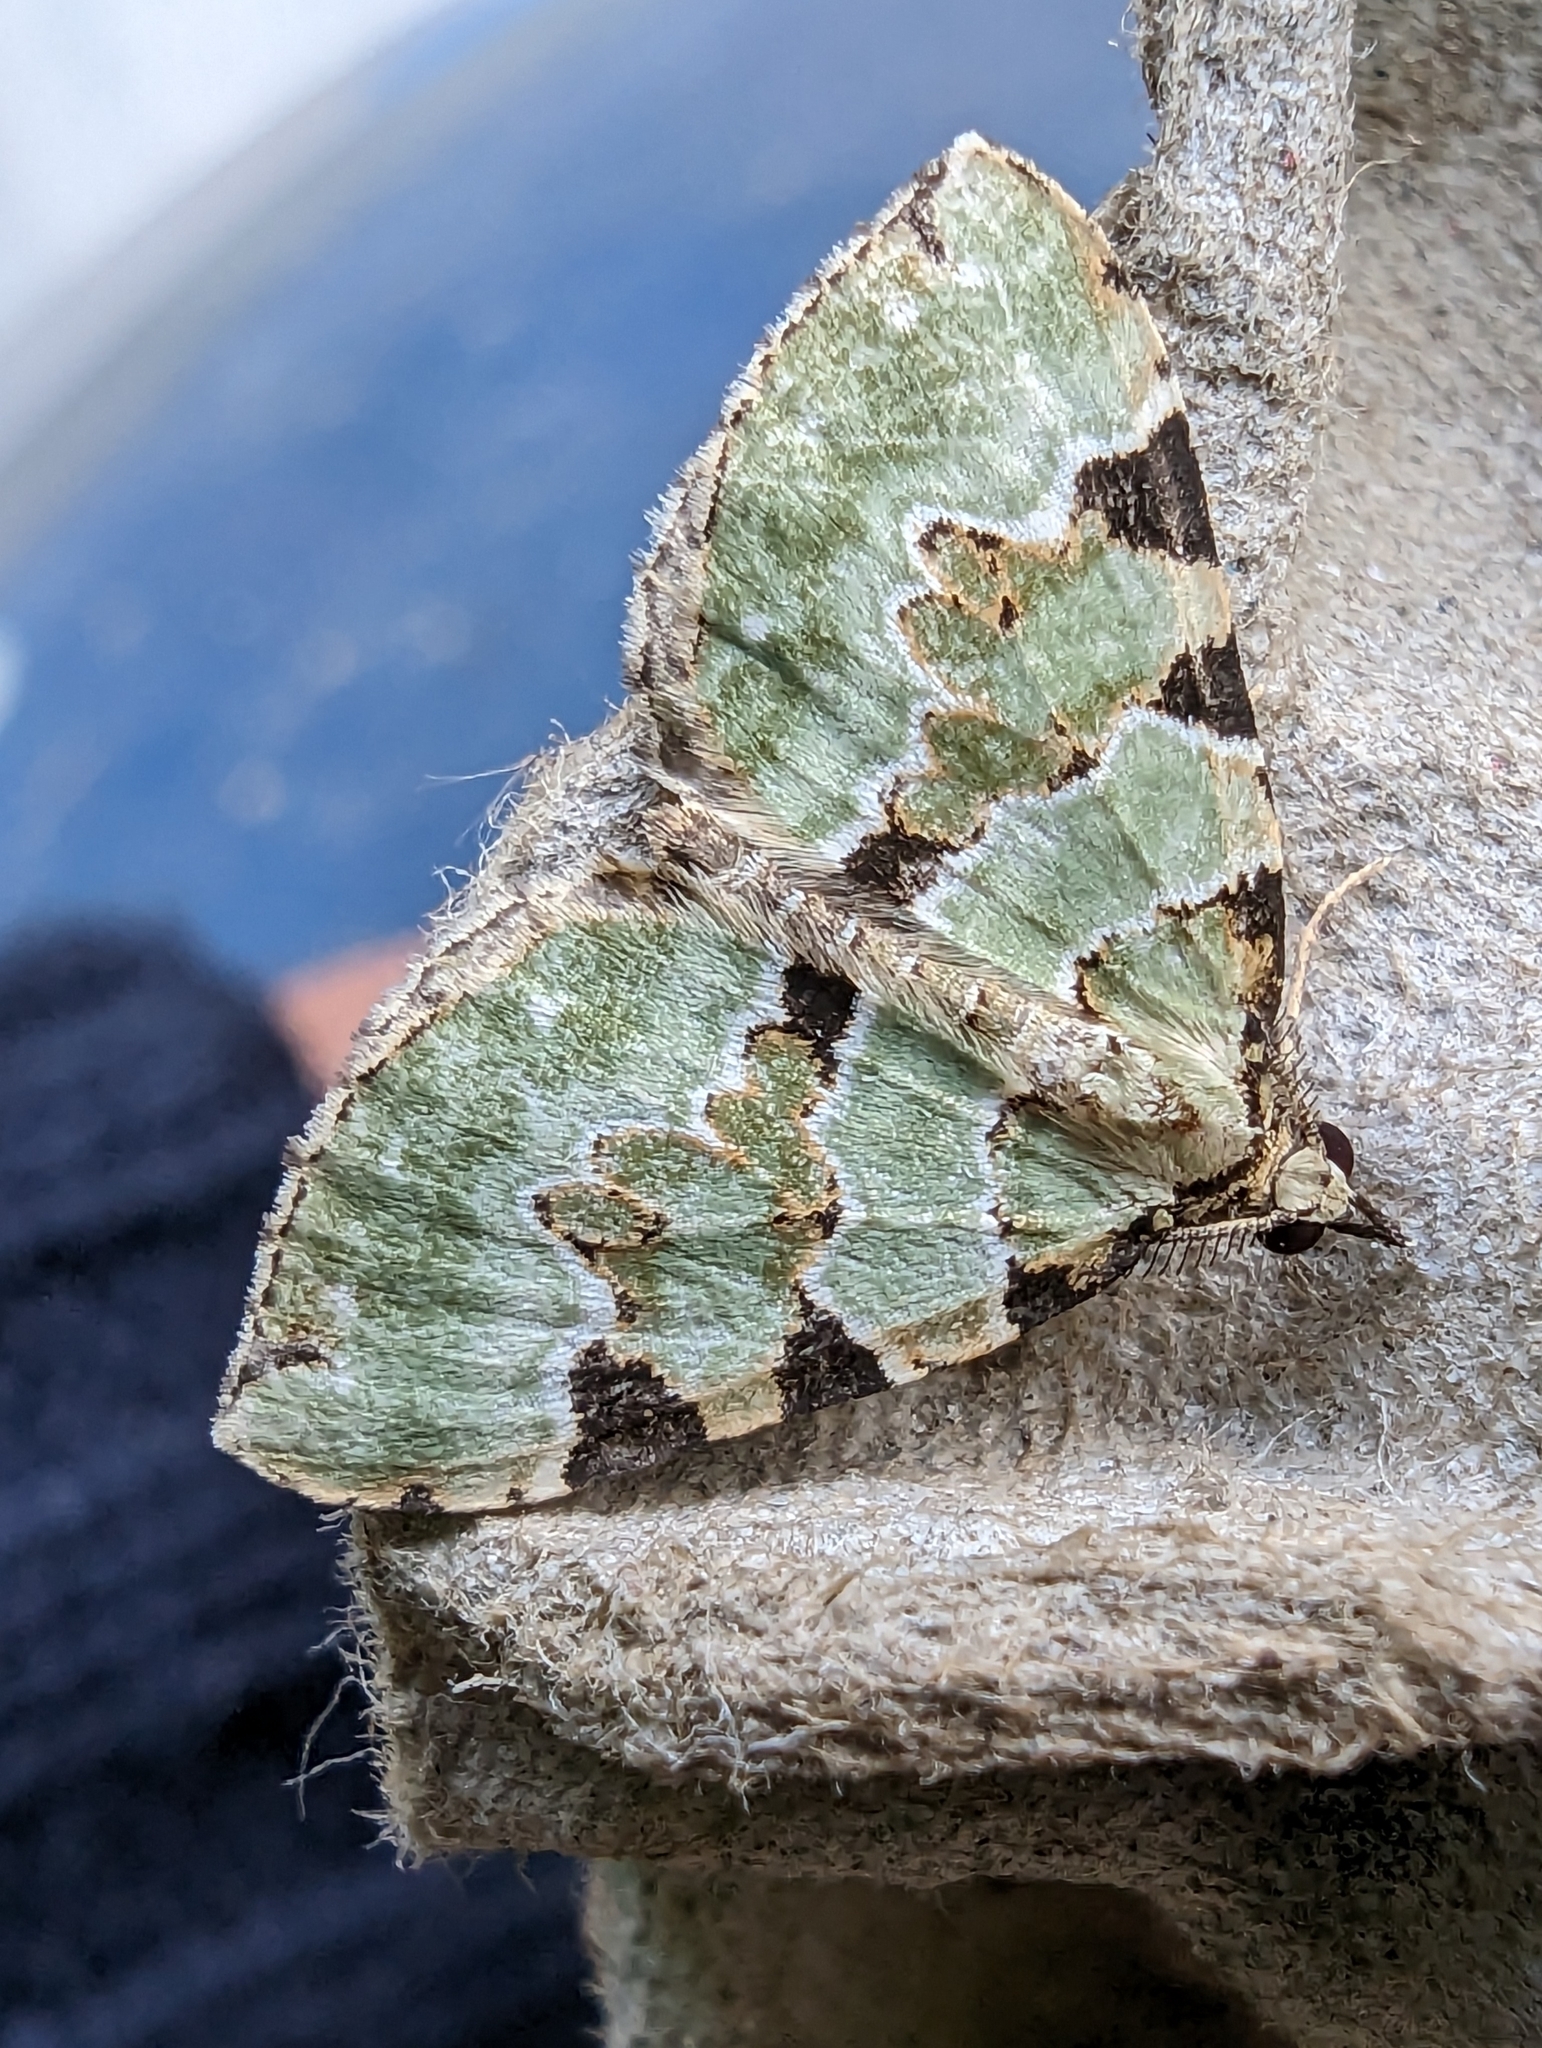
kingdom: Animalia
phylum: Arthropoda
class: Insecta
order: Lepidoptera
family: Geometridae
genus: Colostygia
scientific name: Colostygia pectinataria
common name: Green carpet
